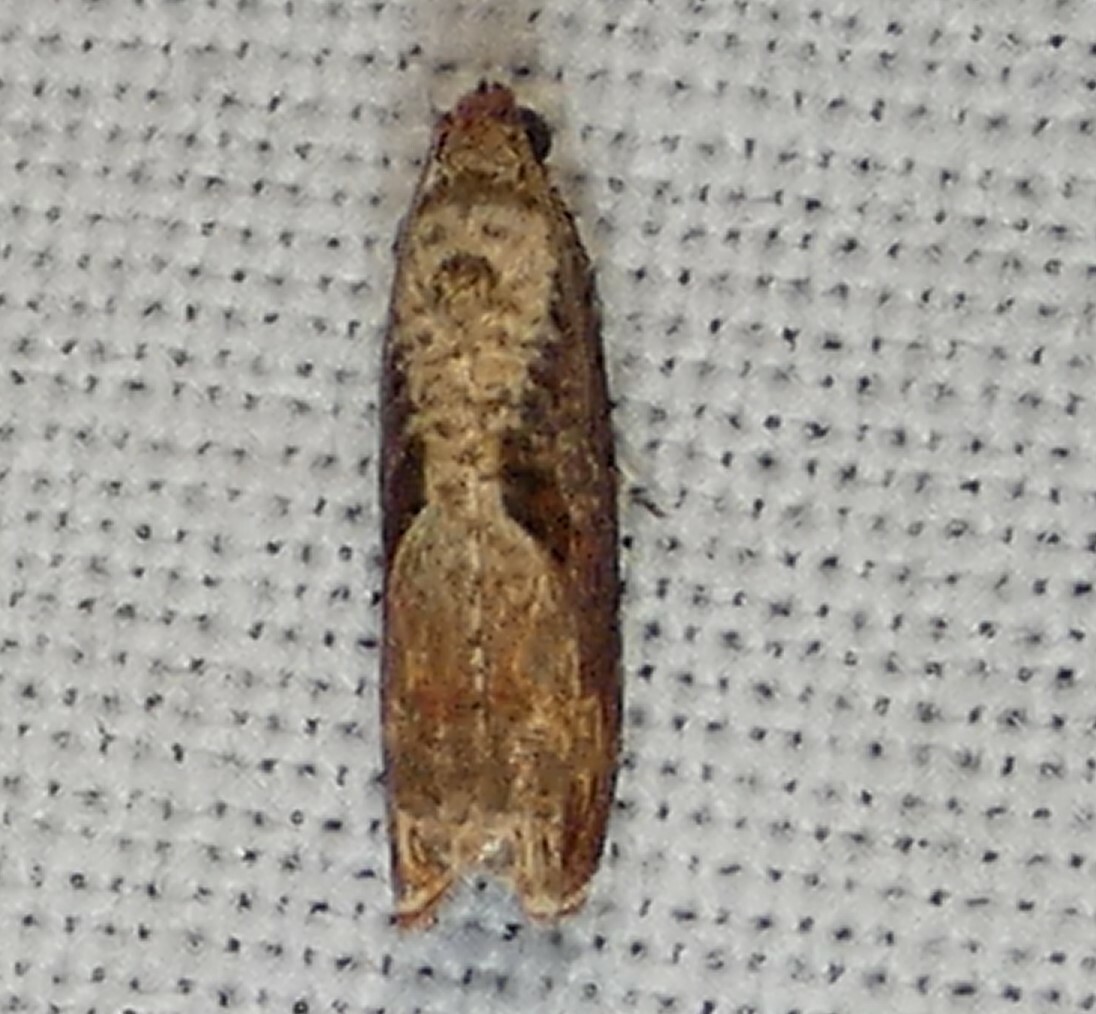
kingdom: Animalia
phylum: Arthropoda
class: Insecta
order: Lepidoptera
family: Tortricidae
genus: Episimus
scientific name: Episimus tyrius
